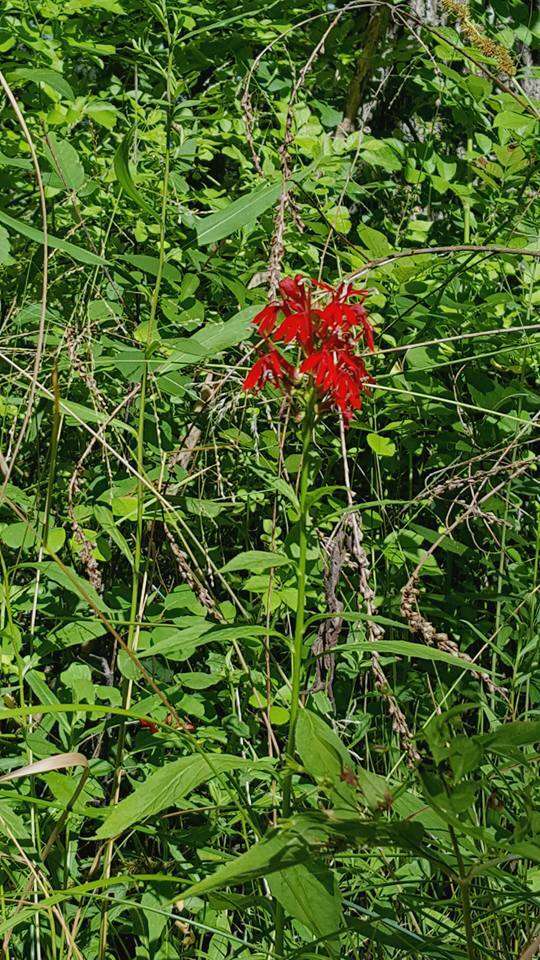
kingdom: Plantae
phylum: Tracheophyta
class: Magnoliopsida
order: Asterales
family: Campanulaceae
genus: Lobelia
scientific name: Lobelia cardinalis
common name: Cardinal flower
